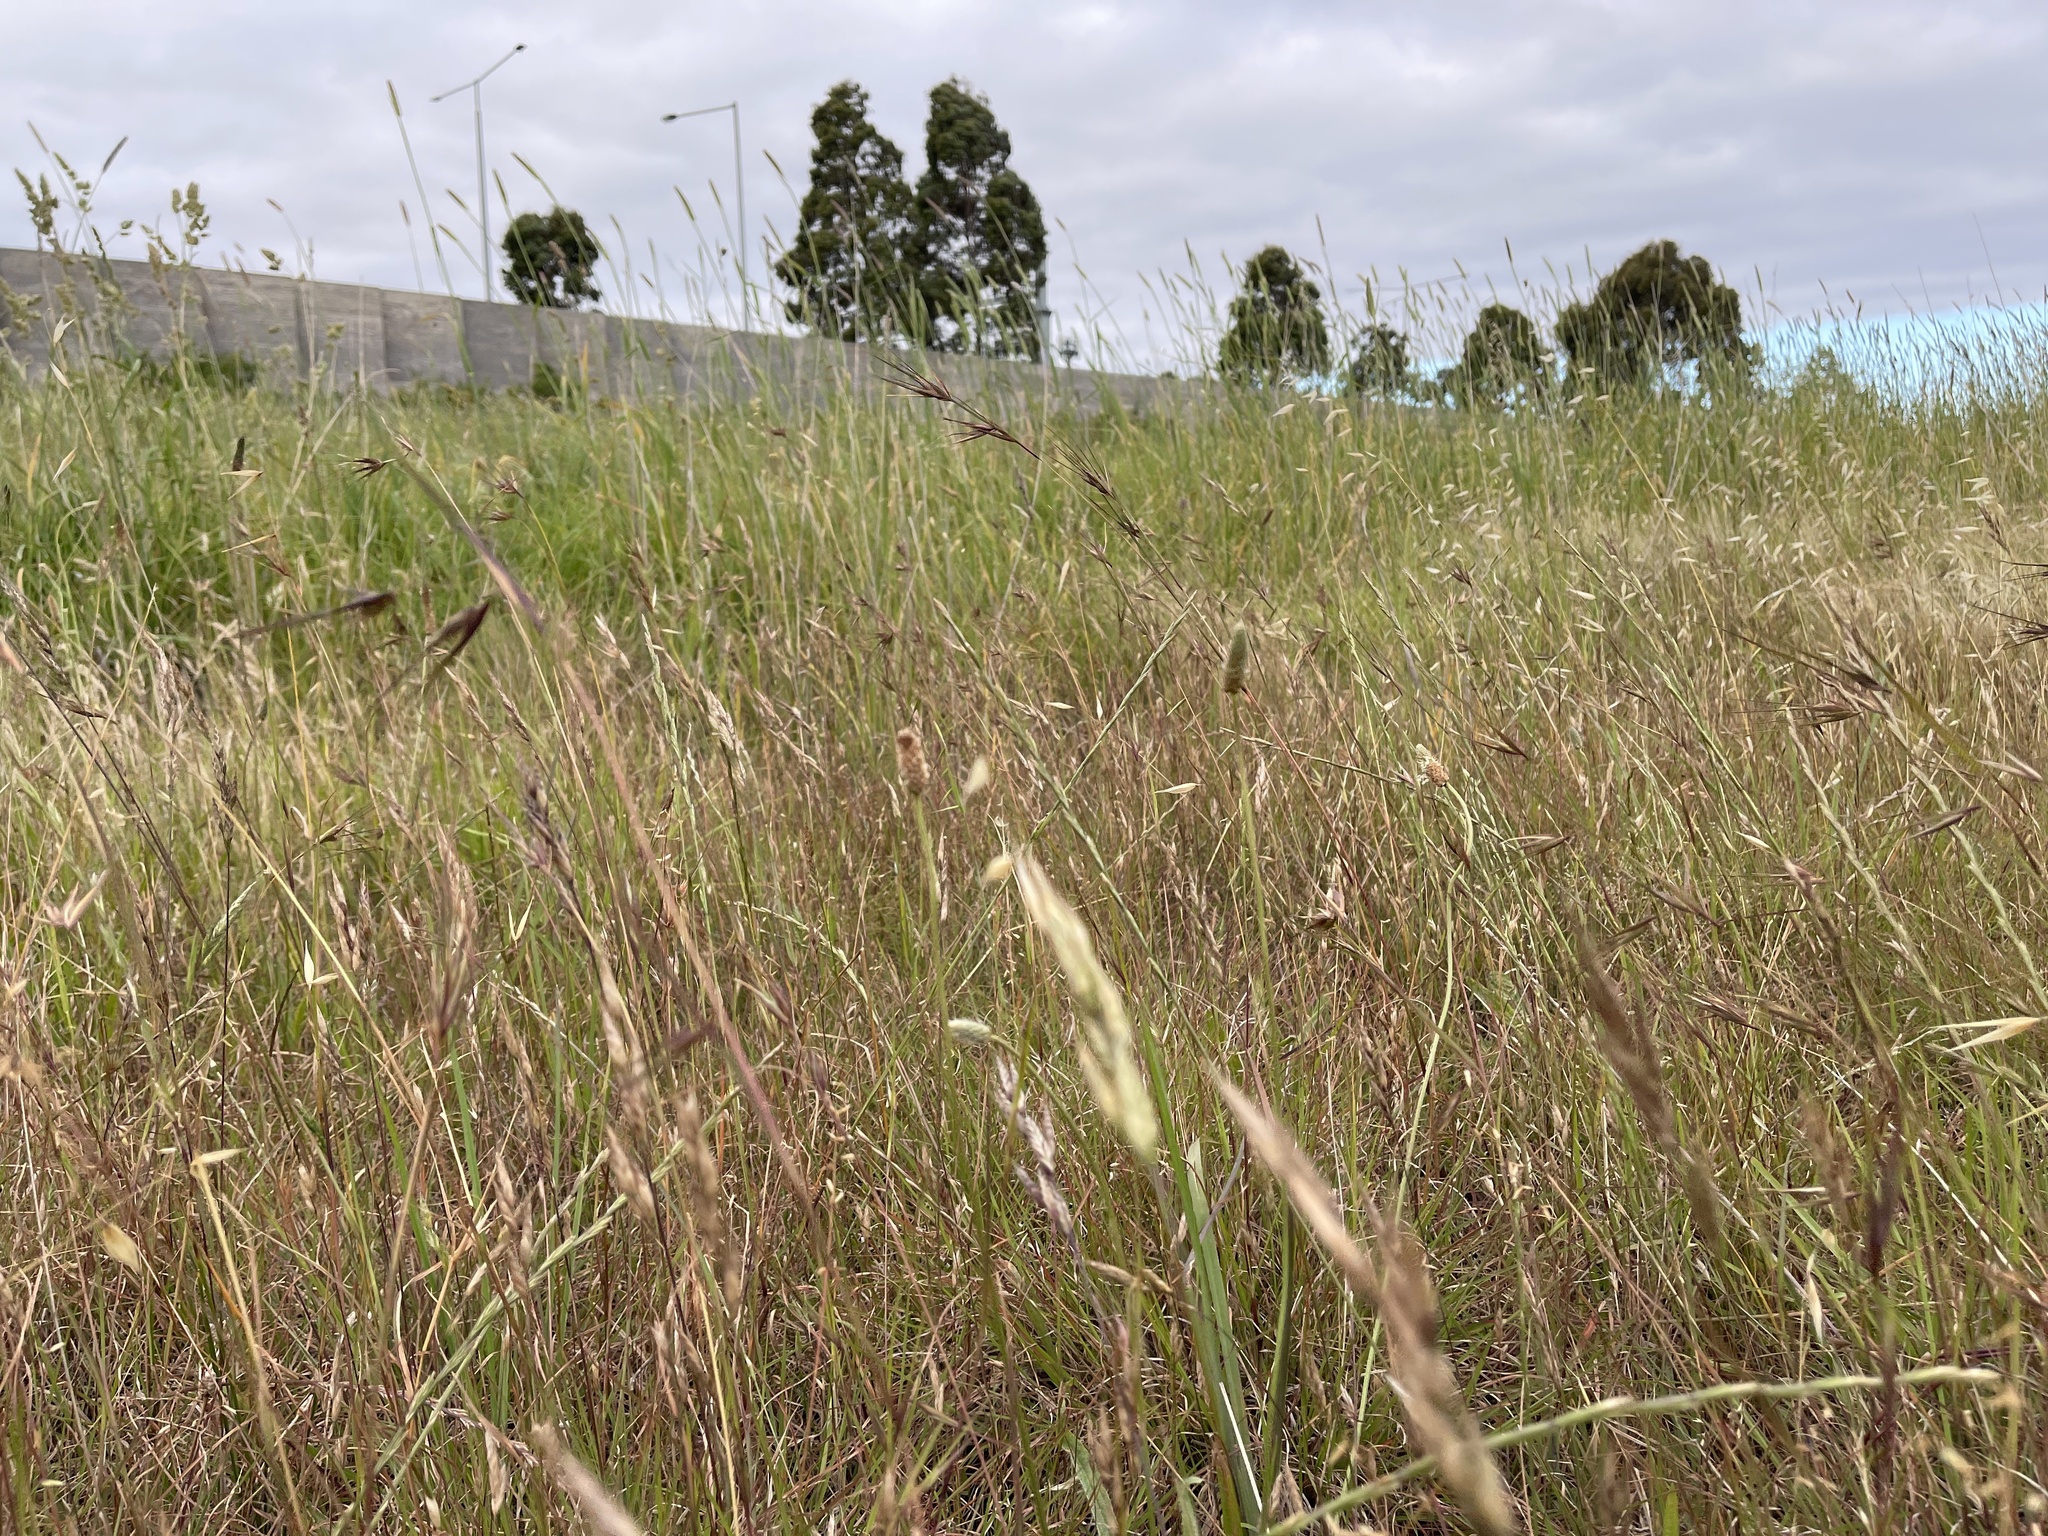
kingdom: Plantae
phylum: Tracheophyta
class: Liliopsida
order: Poales
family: Poaceae
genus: Themeda
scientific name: Themeda triandra
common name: Kangaroo grass
